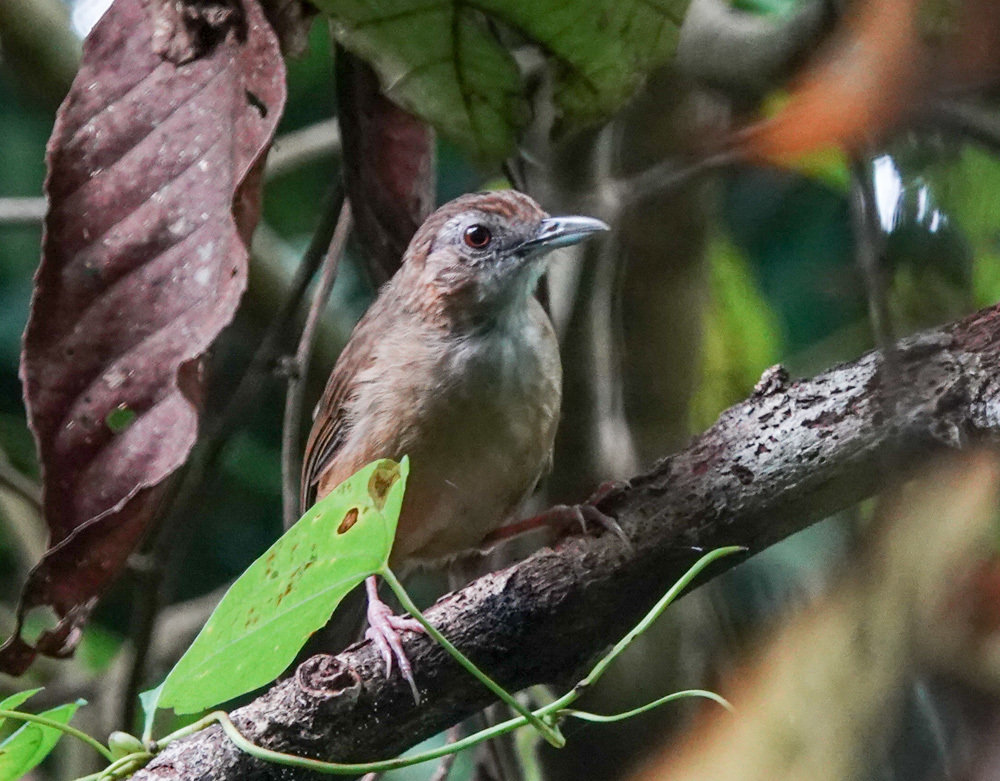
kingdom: Animalia
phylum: Chordata
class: Aves
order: Passeriformes
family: Pellorneidae
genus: Malacocincla
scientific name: Malacocincla abbotti
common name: Abbott's babbler
